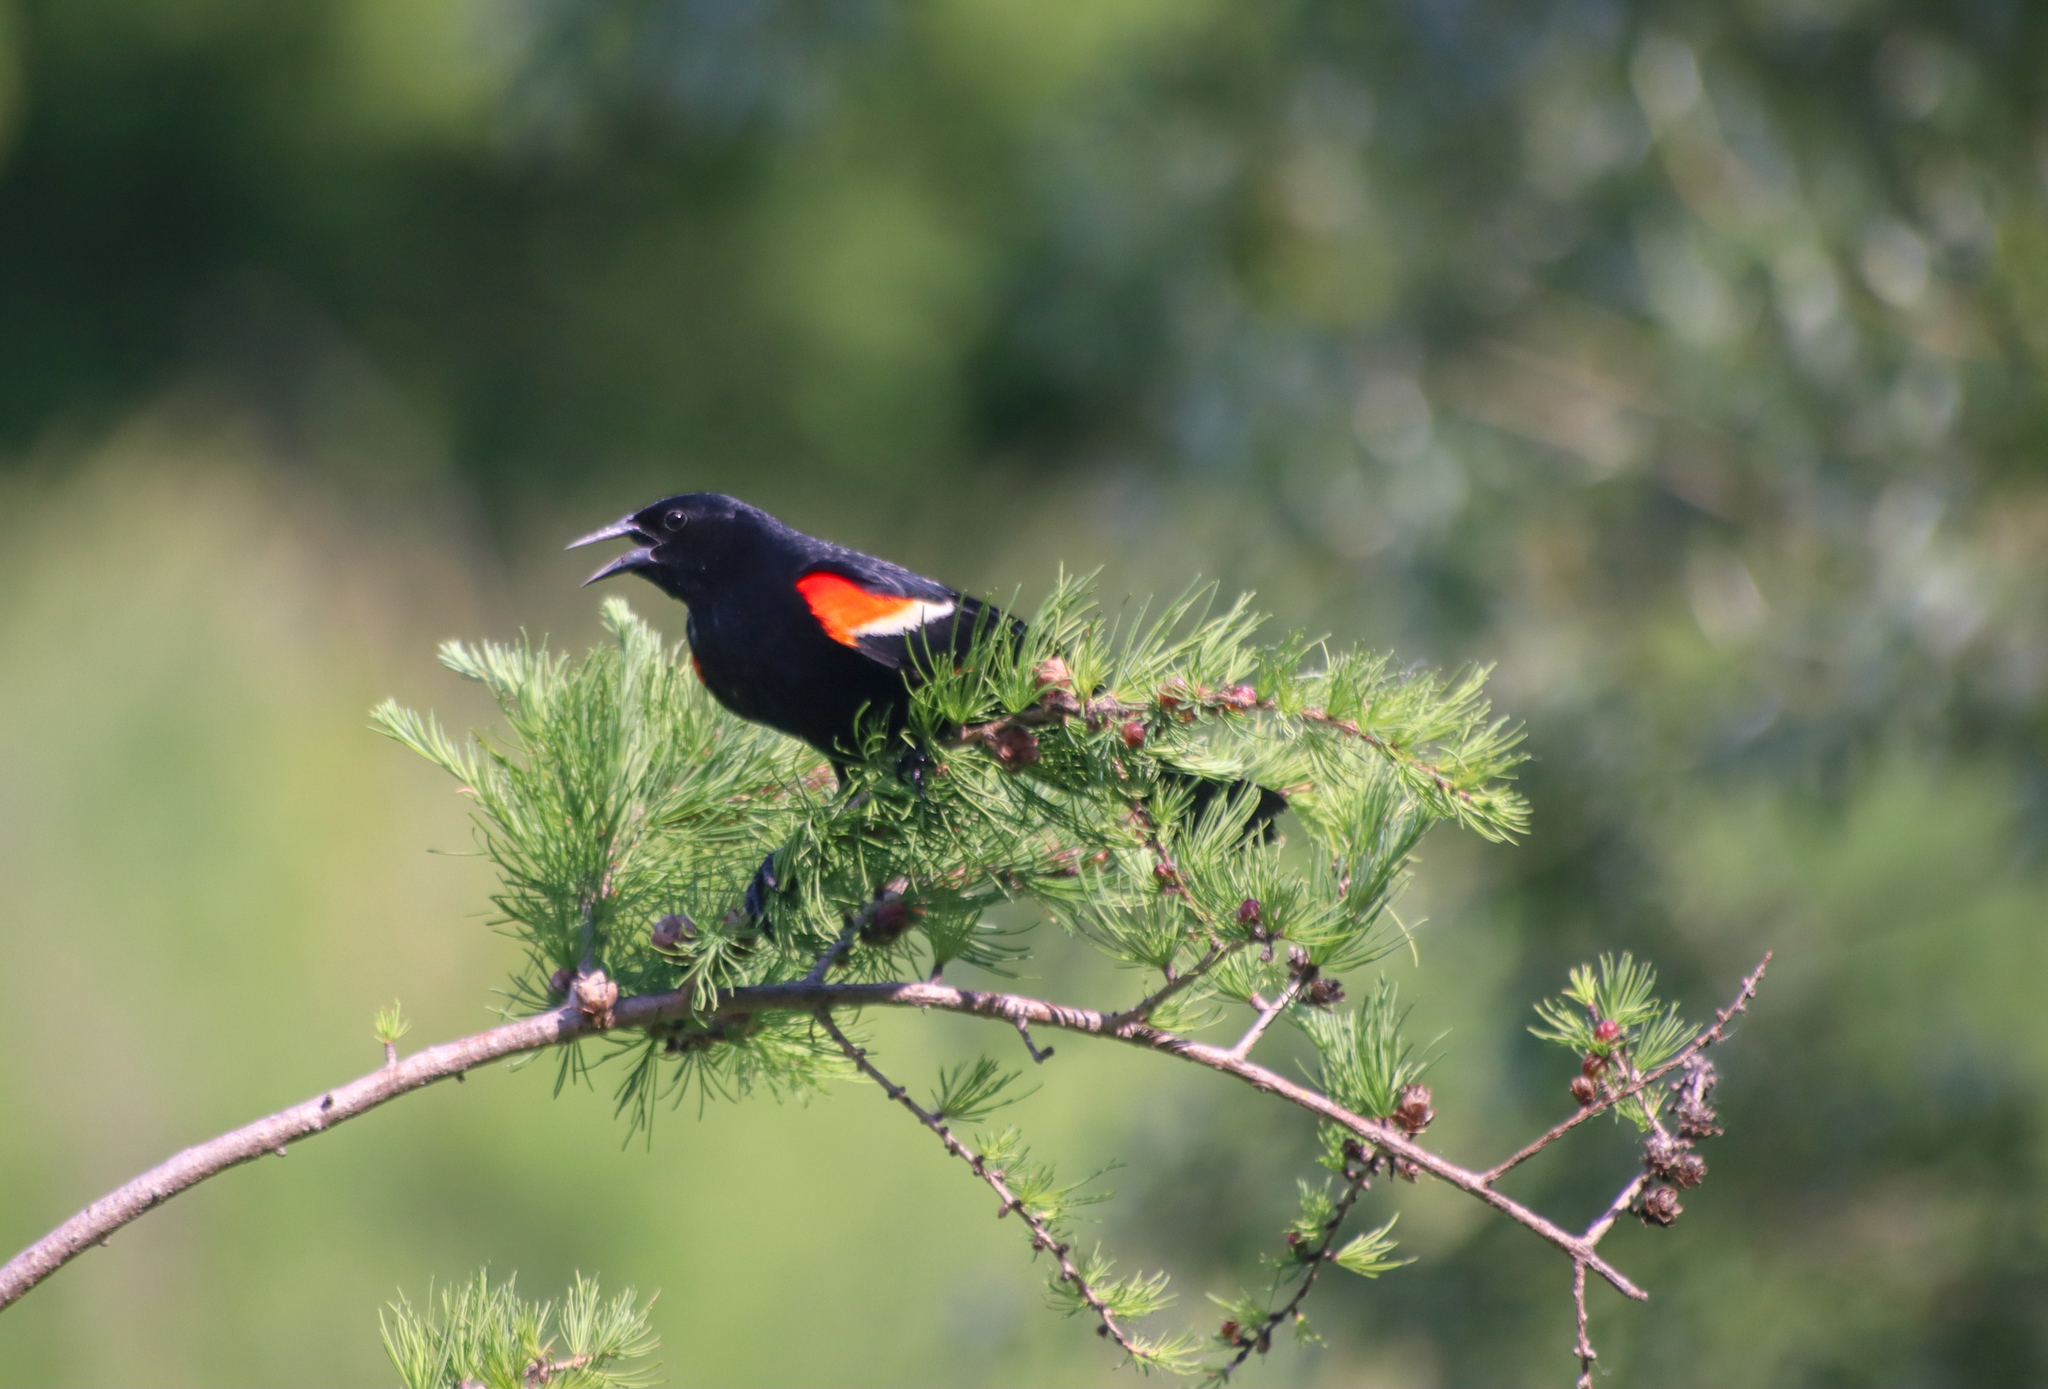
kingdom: Animalia
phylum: Chordata
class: Aves
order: Passeriformes
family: Icteridae
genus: Agelaius
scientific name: Agelaius phoeniceus
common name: Red-winged blackbird
